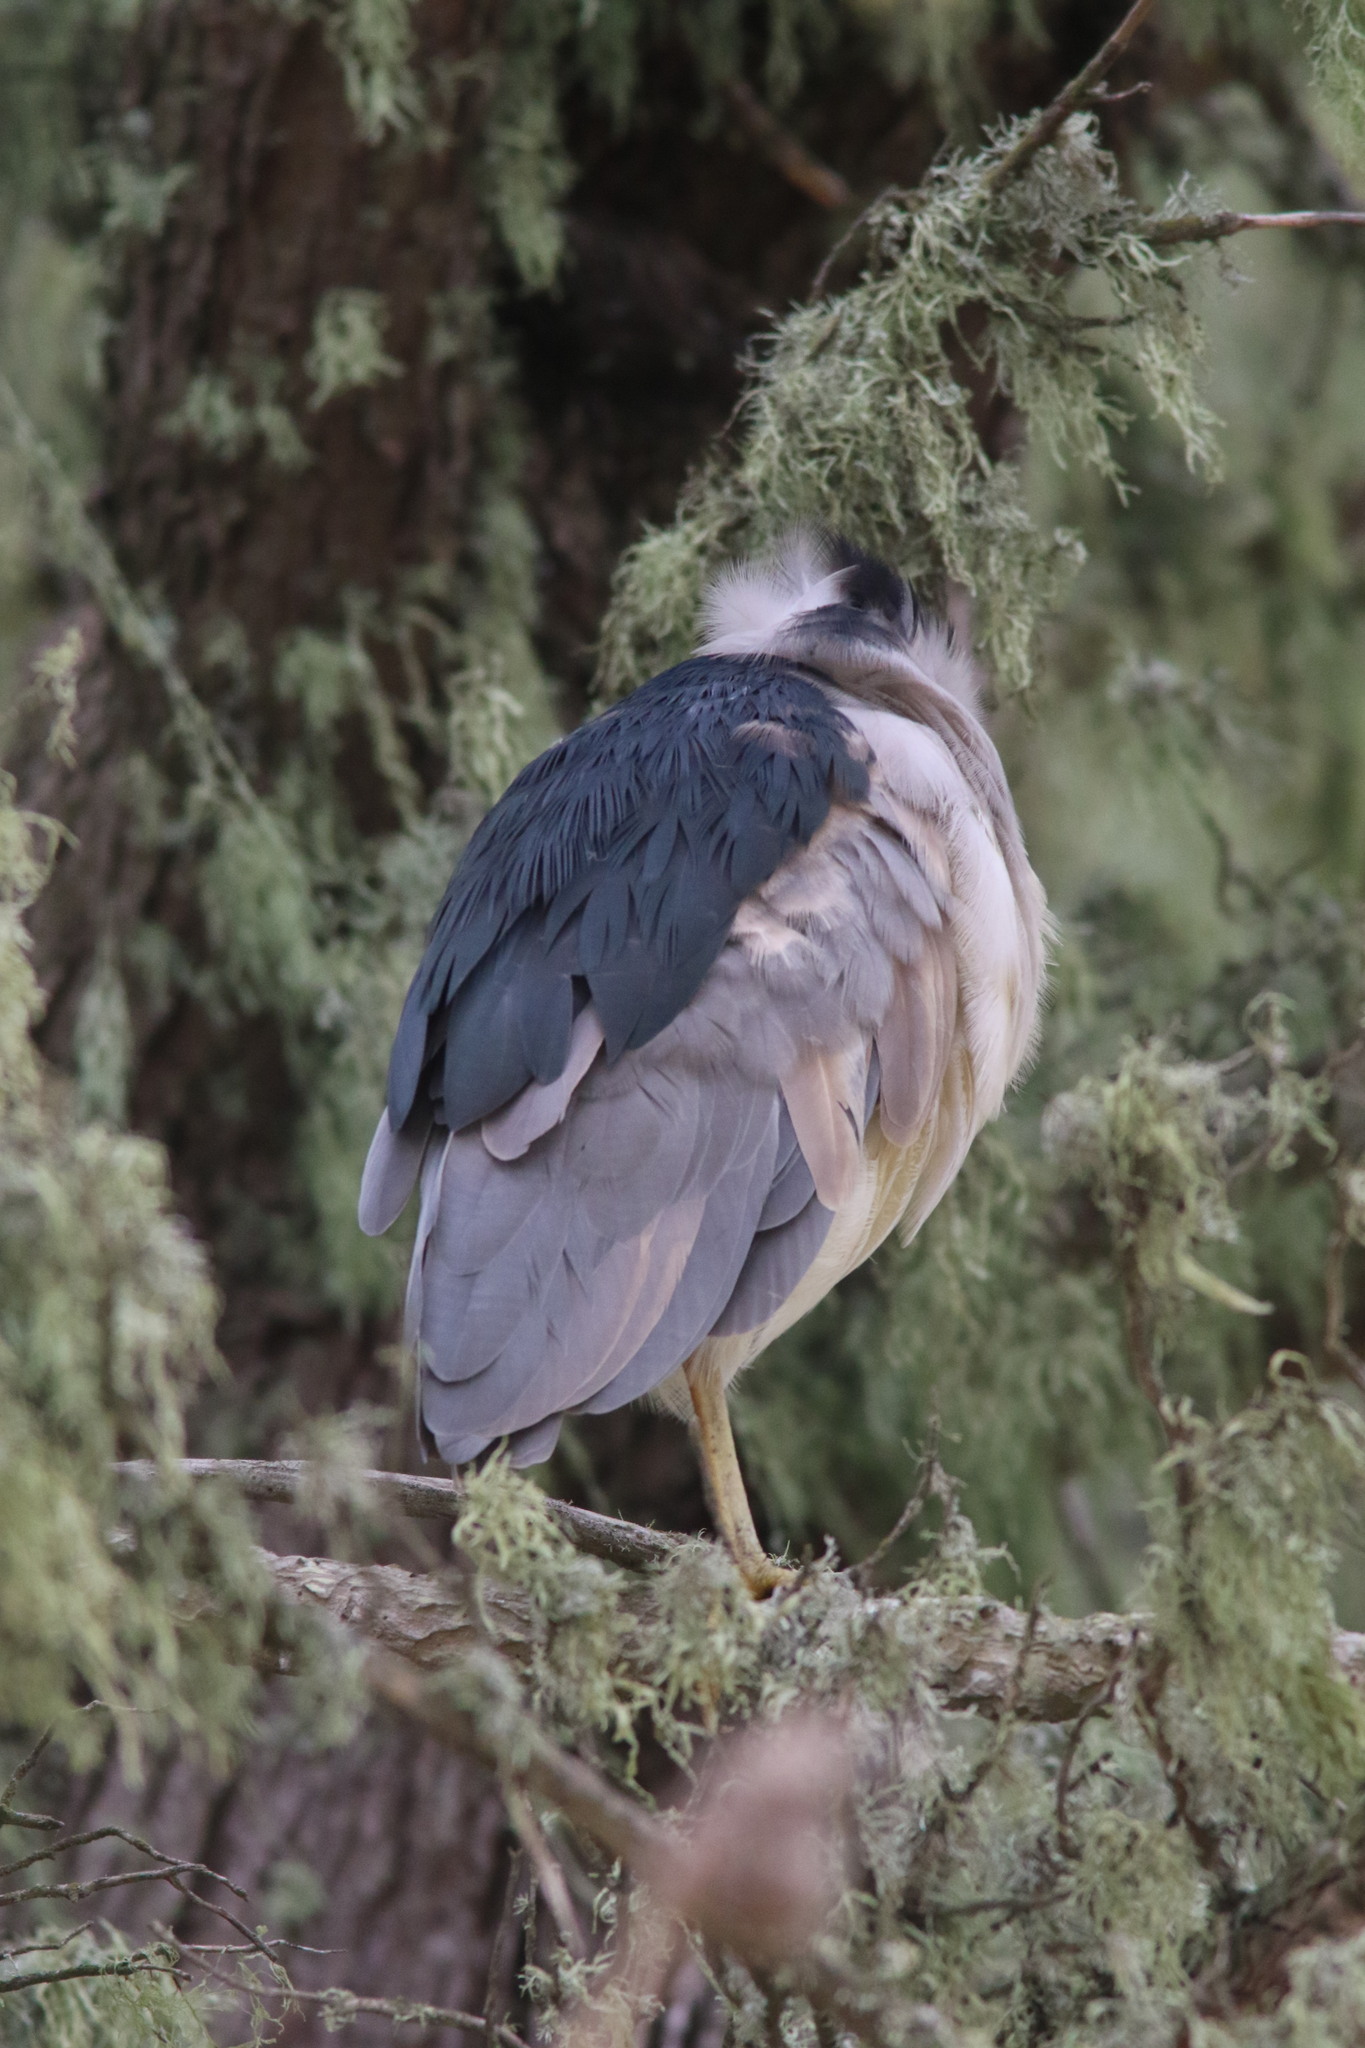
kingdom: Animalia
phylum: Chordata
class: Aves
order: Pelecaniformes
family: Ardeidae
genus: Nycticorax
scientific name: Nycticorax nycticorax
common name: Black-crowned night heron
